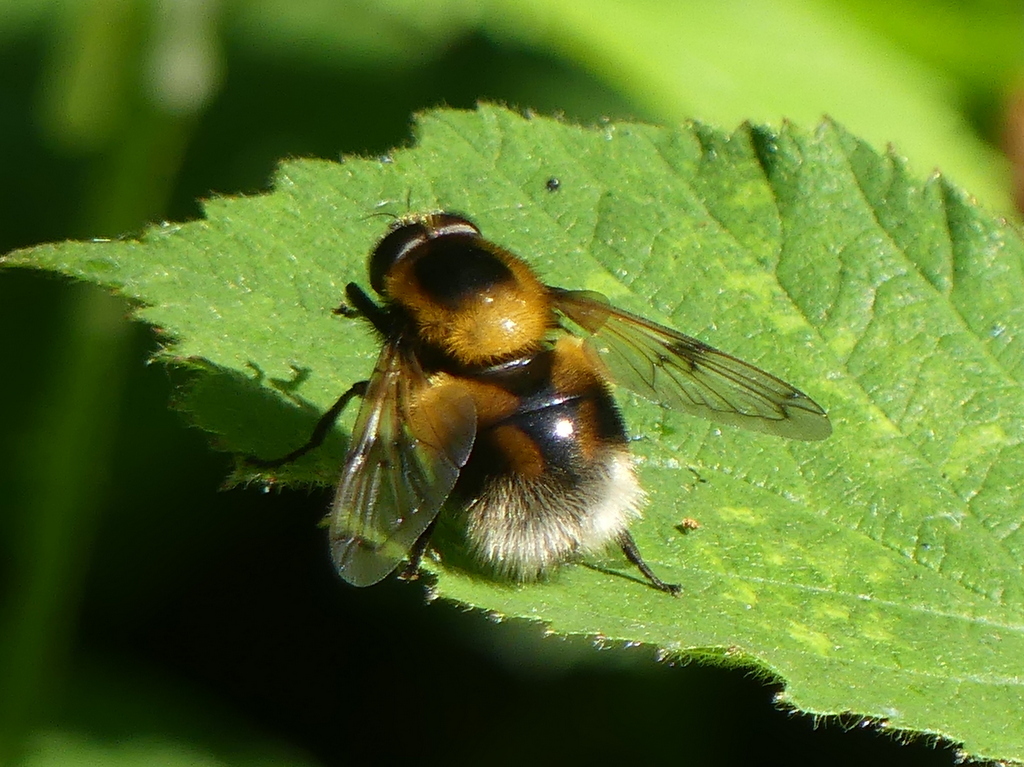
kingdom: Animalia
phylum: Arthropoda
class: Insecta
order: Diptera
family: Syrphidae
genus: Volucella
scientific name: Volucella bombylans
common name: Bumble bee hover fly
